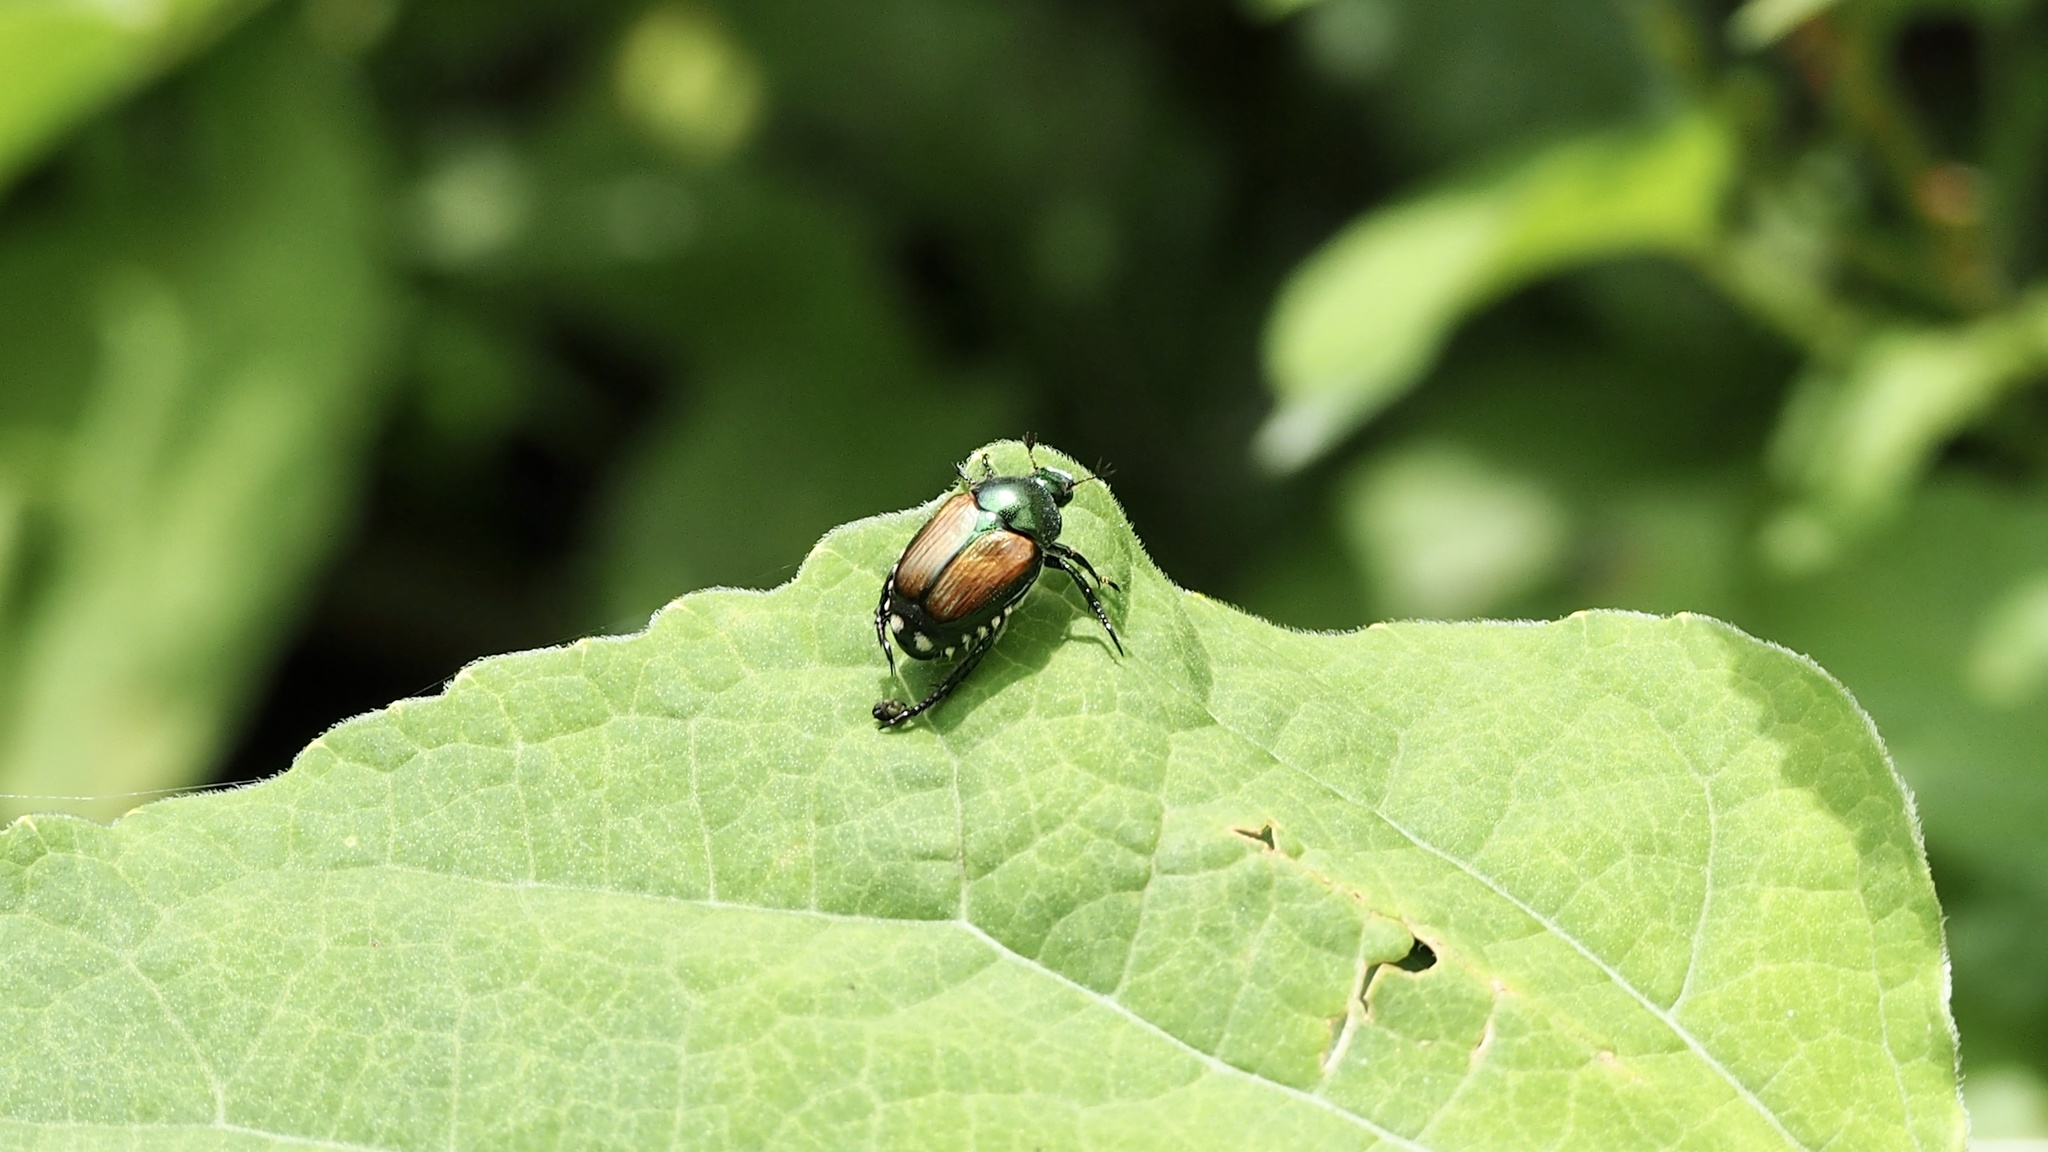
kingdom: Animalia
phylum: Arthropoda
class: Insecta
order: Coleoptera
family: Scarabaeidae
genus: Popillia
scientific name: Popillia japonica
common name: Japanese beetle
